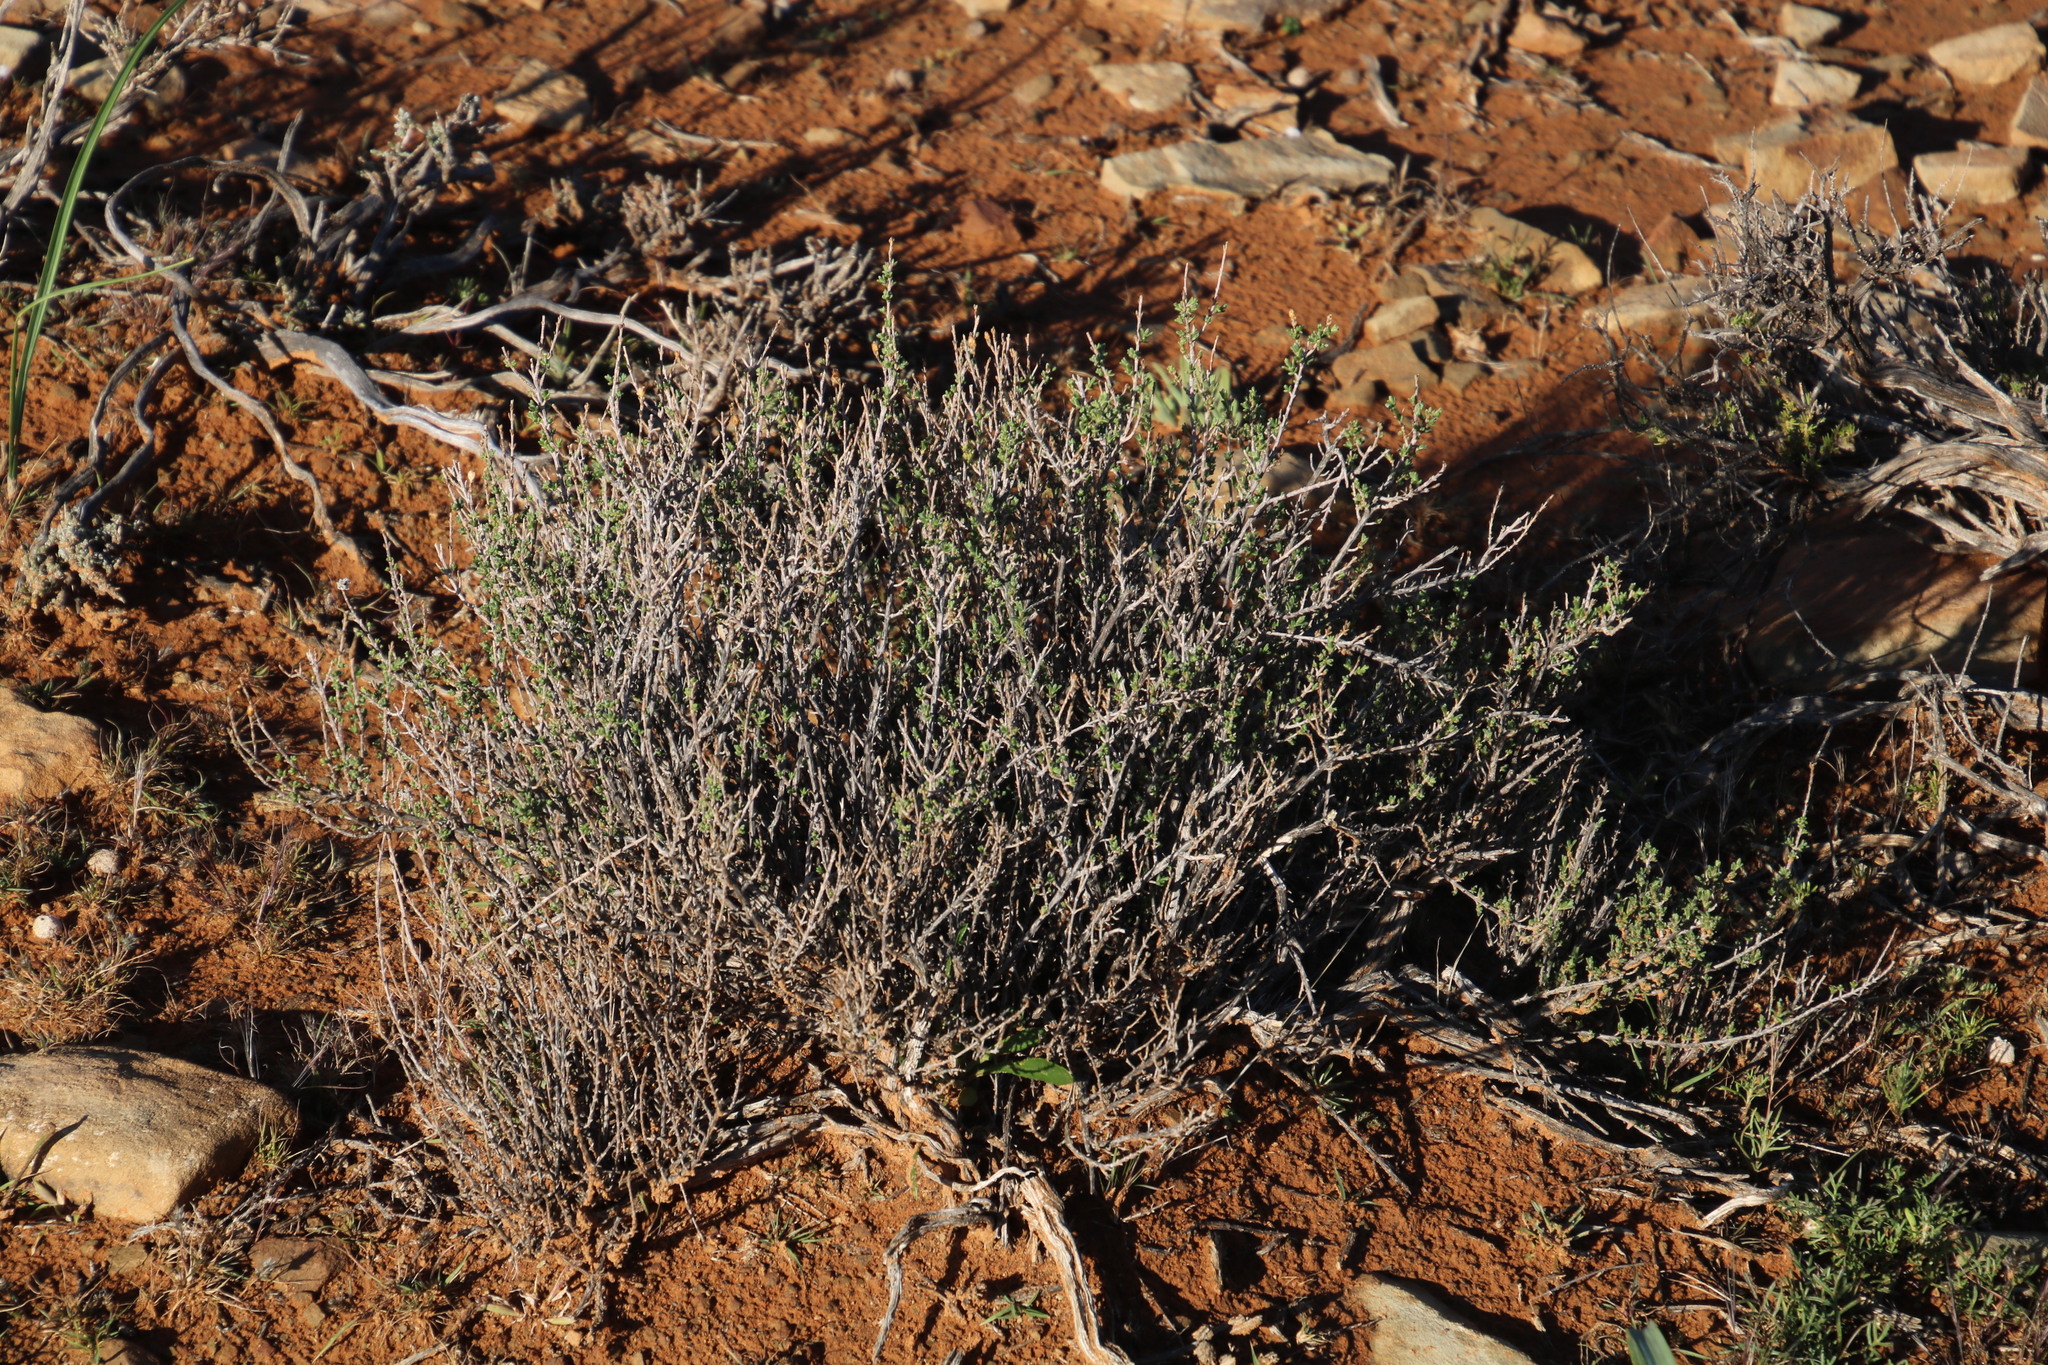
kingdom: Plantae
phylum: Tracheophyta
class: Magnoliopsida
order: Asterales
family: Asteraceae
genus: Pteronia
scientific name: Pteronia glomerata
